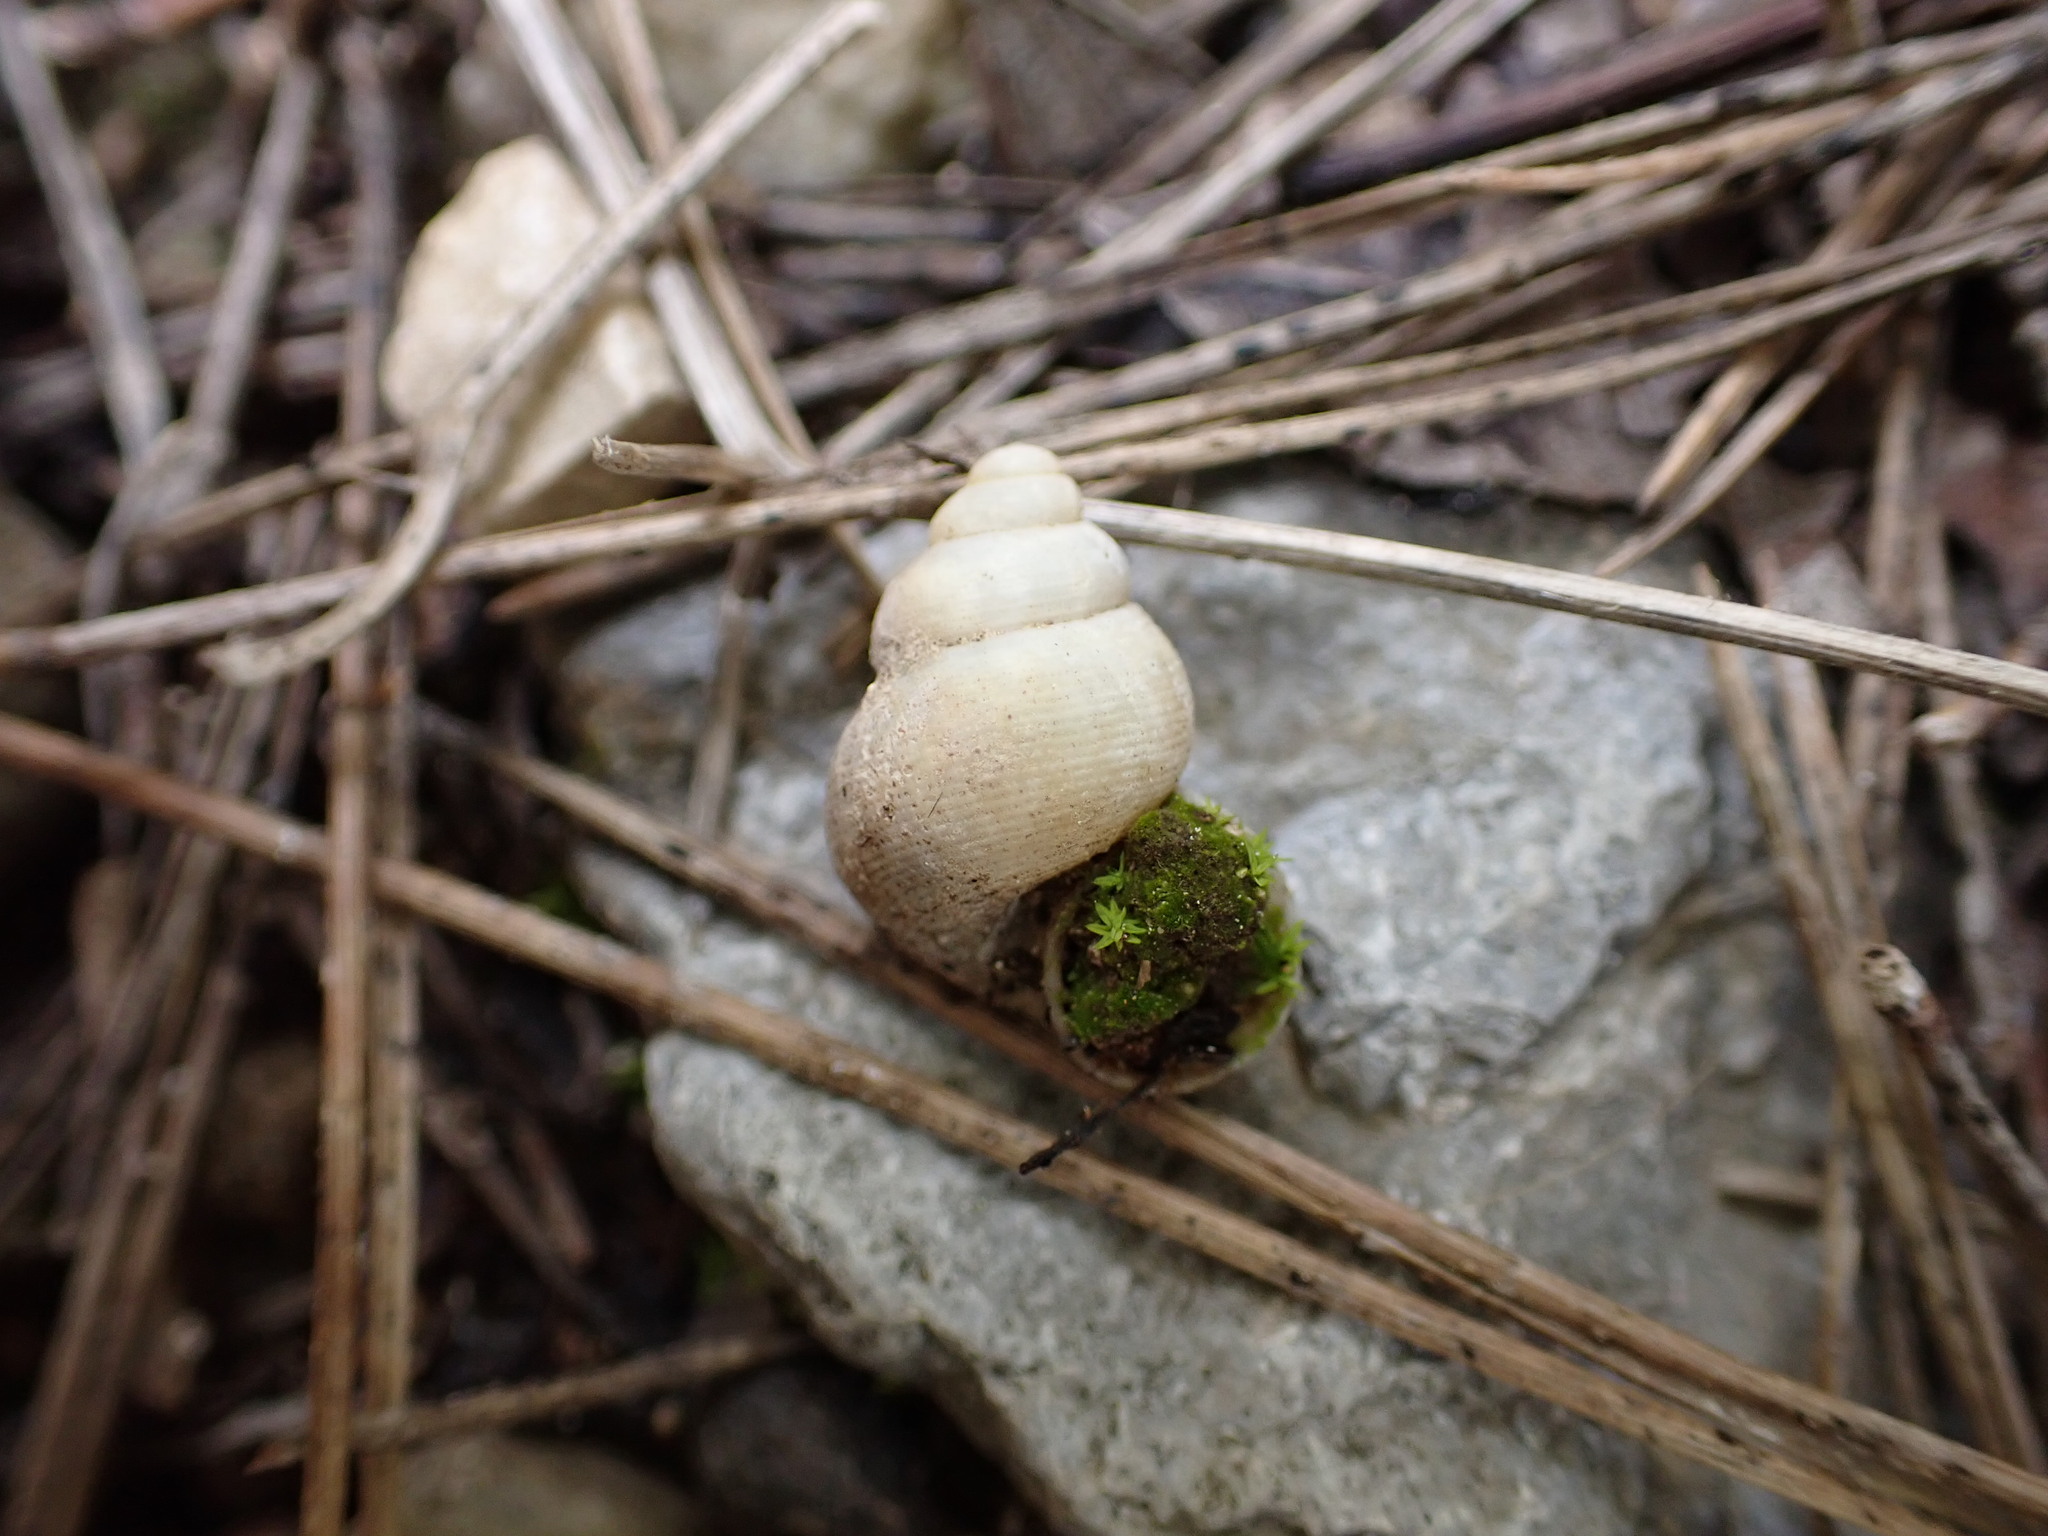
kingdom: Animalia
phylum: Mollusca
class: Gastropoda
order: Littorinimorpha
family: Pomatiidae
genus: Pomatias
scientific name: Pomatias elegans
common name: Red-mouthed snail
